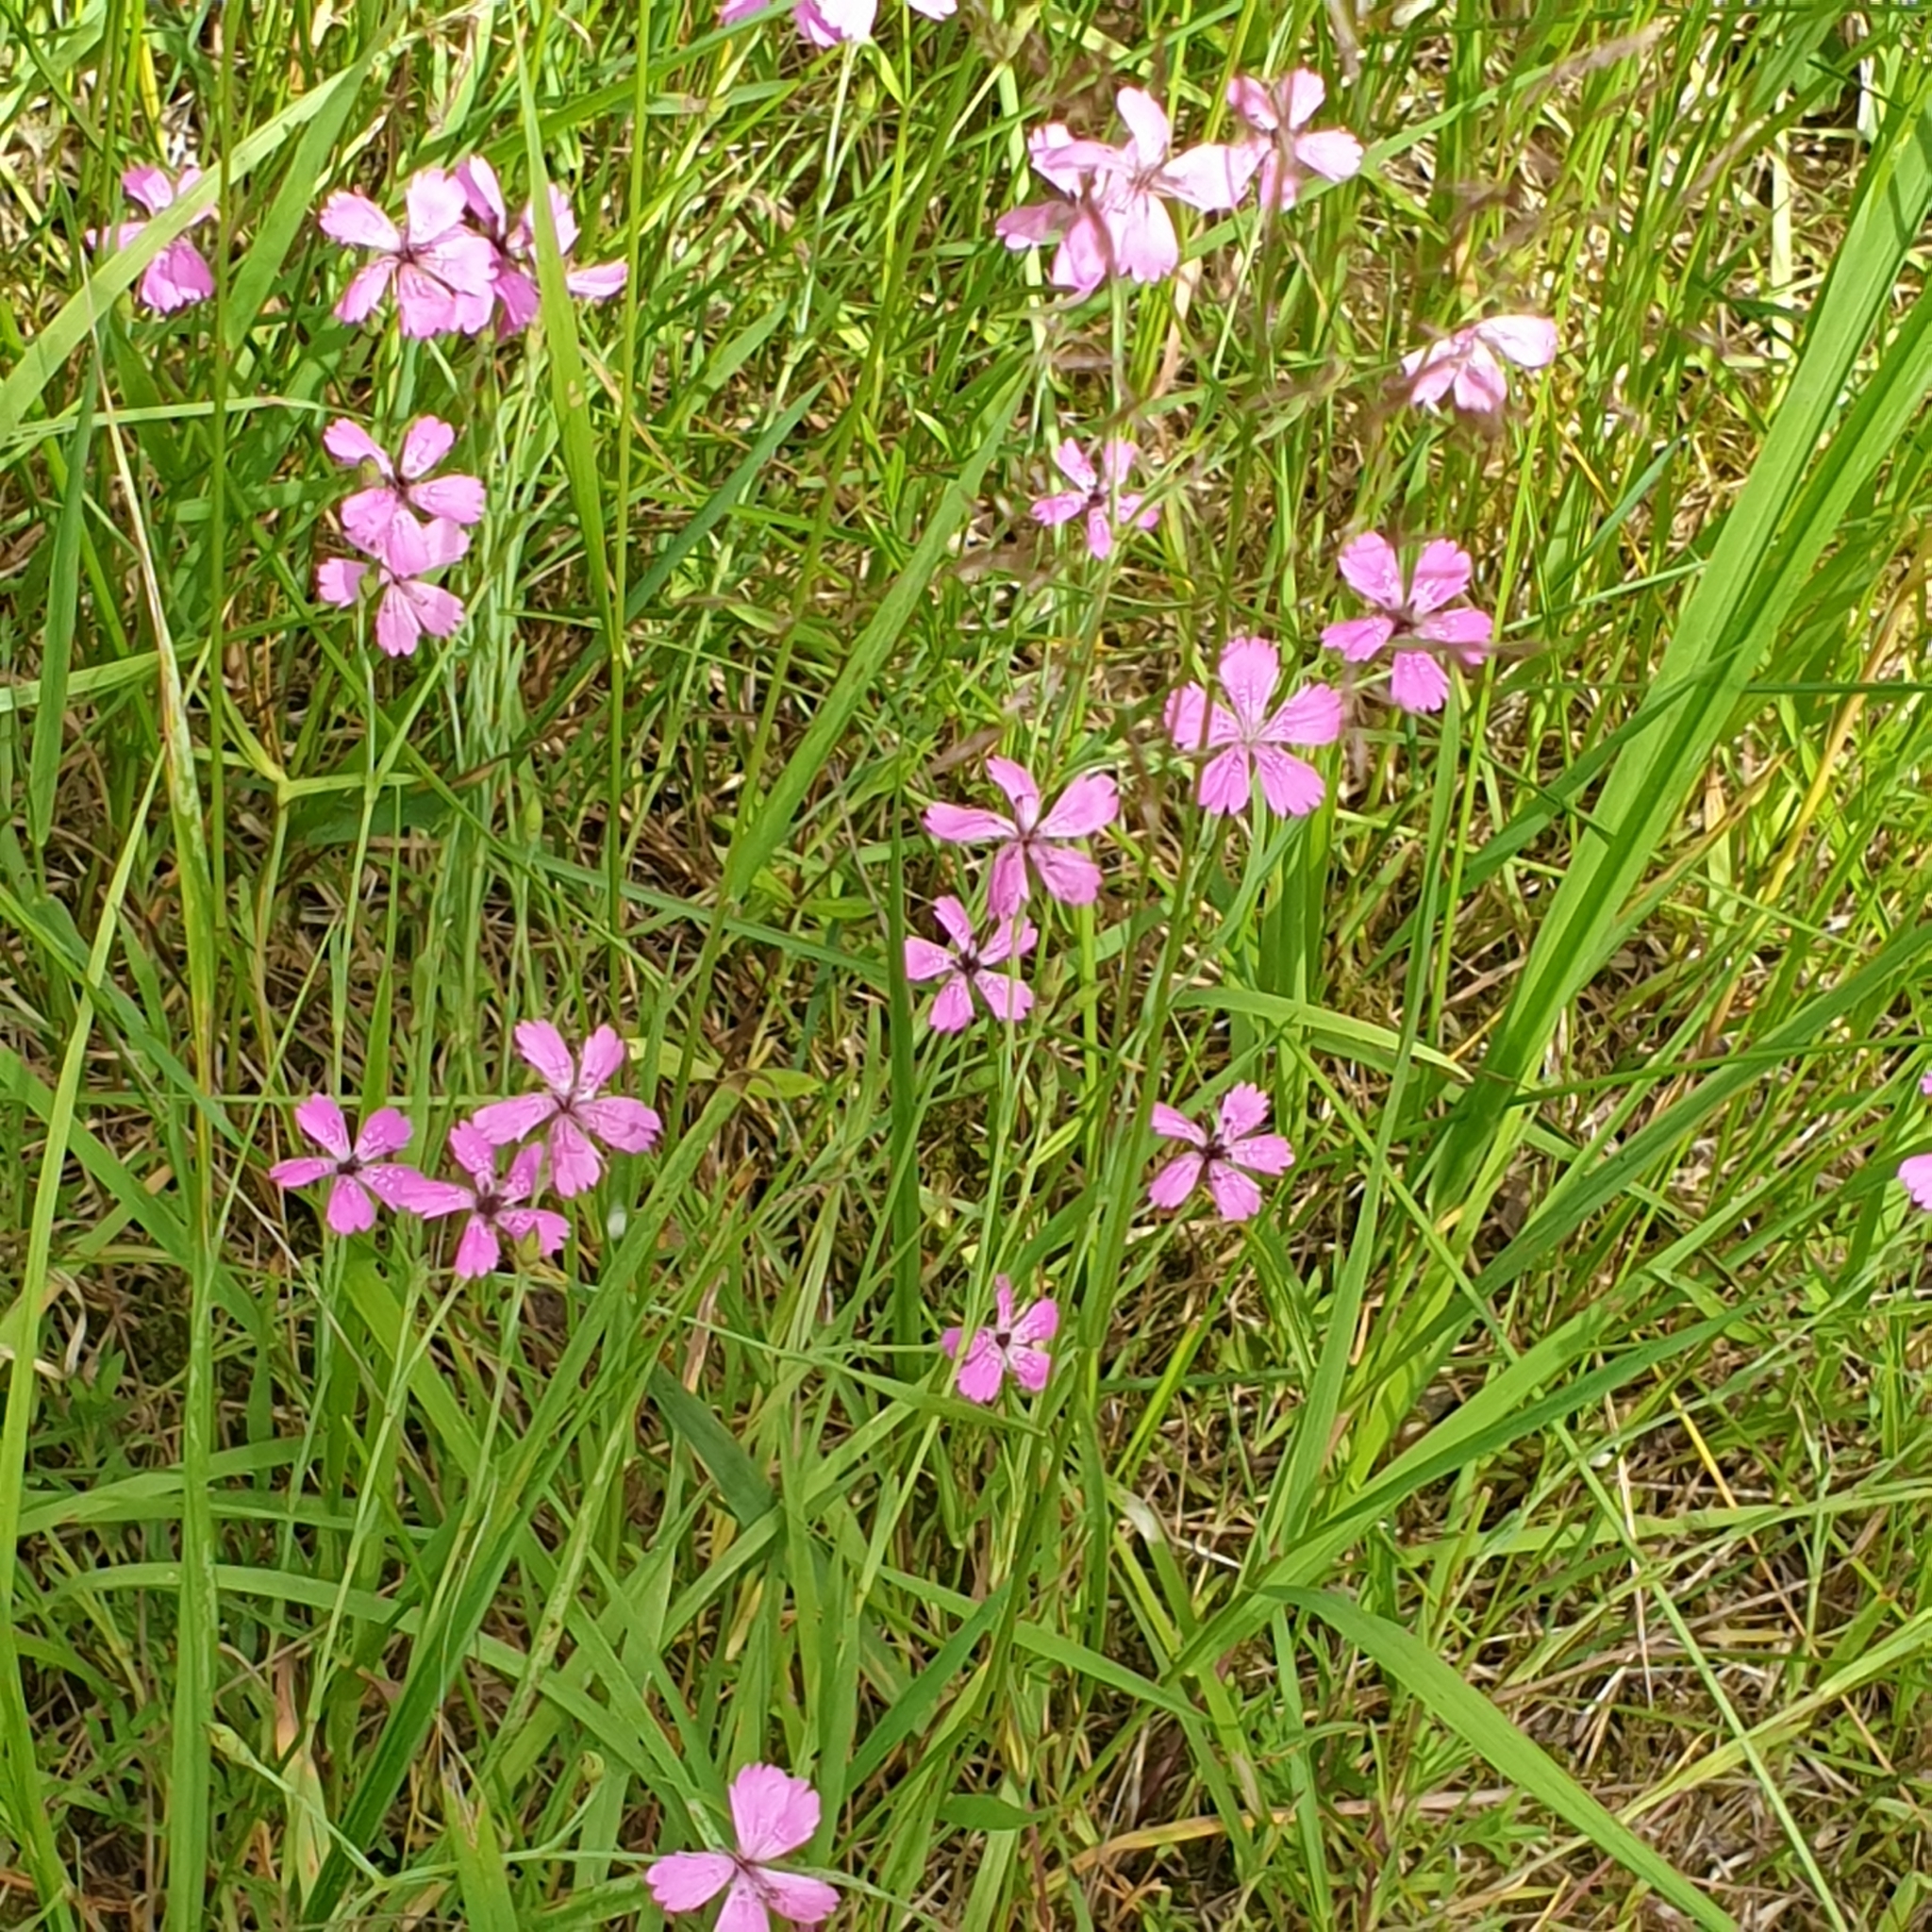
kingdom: Plantae
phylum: Tracheophyta
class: Magnoliopsida
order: Caryophyllales
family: Caryophyllaceae
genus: Dianthus
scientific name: Dianthus deltoides
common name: Maiden pink
